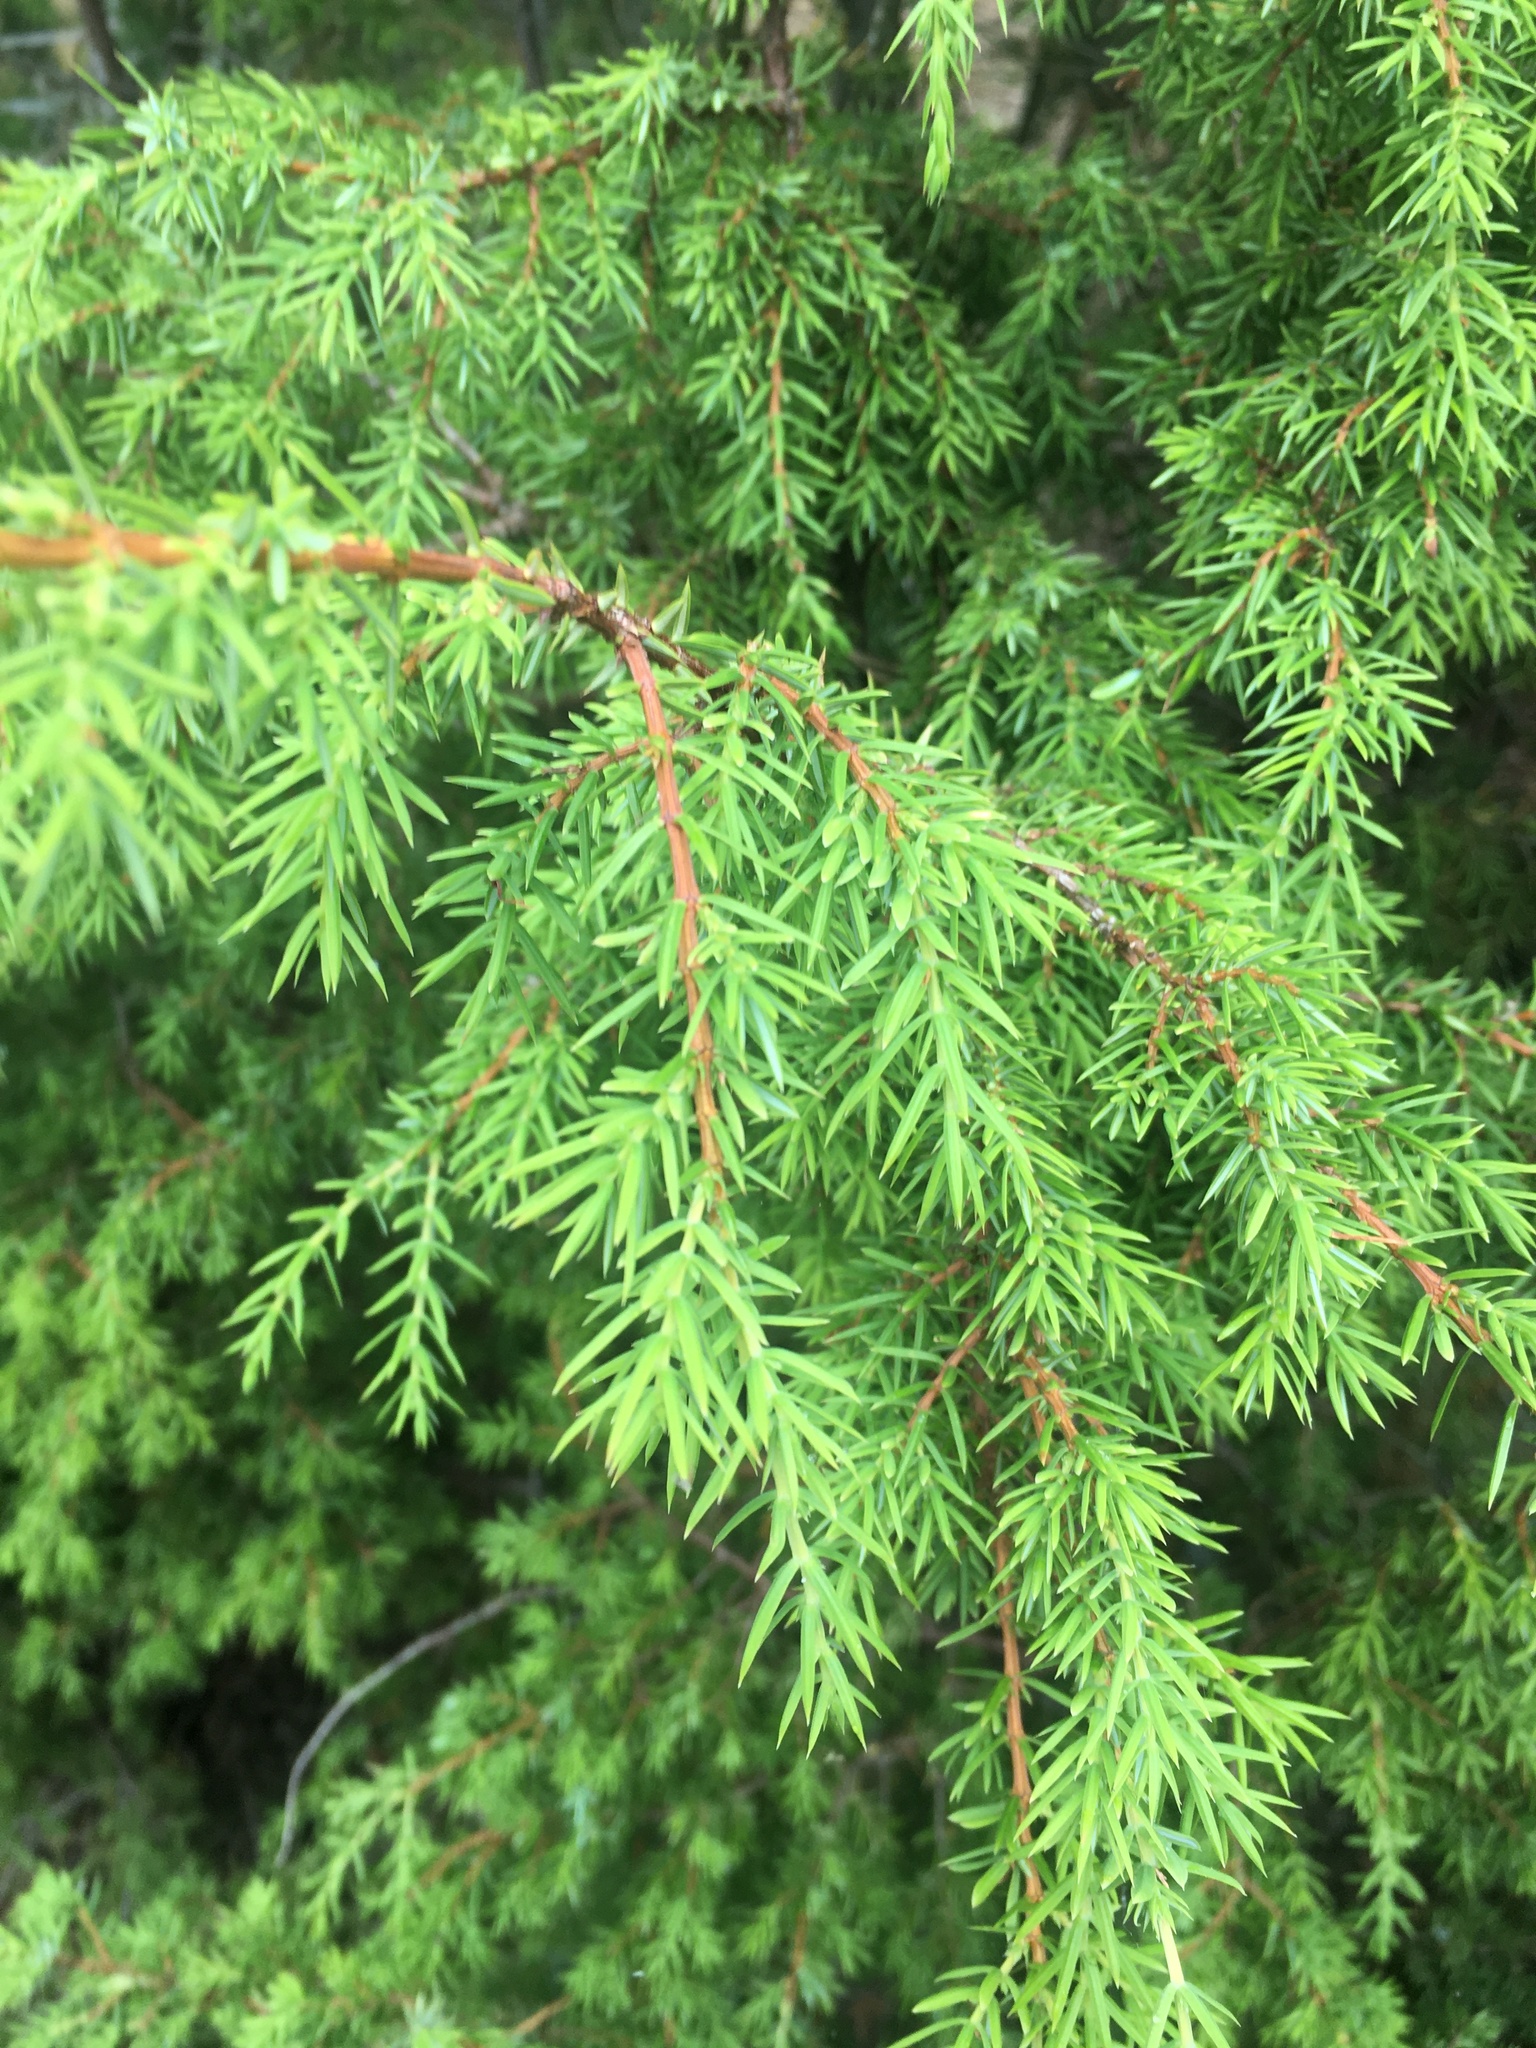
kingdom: Plantae
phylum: Tracheophyta
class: Pinopsida
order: Pinales
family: Cupressaceae
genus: Juniperus
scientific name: Juniperus communis
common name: Common juniper
